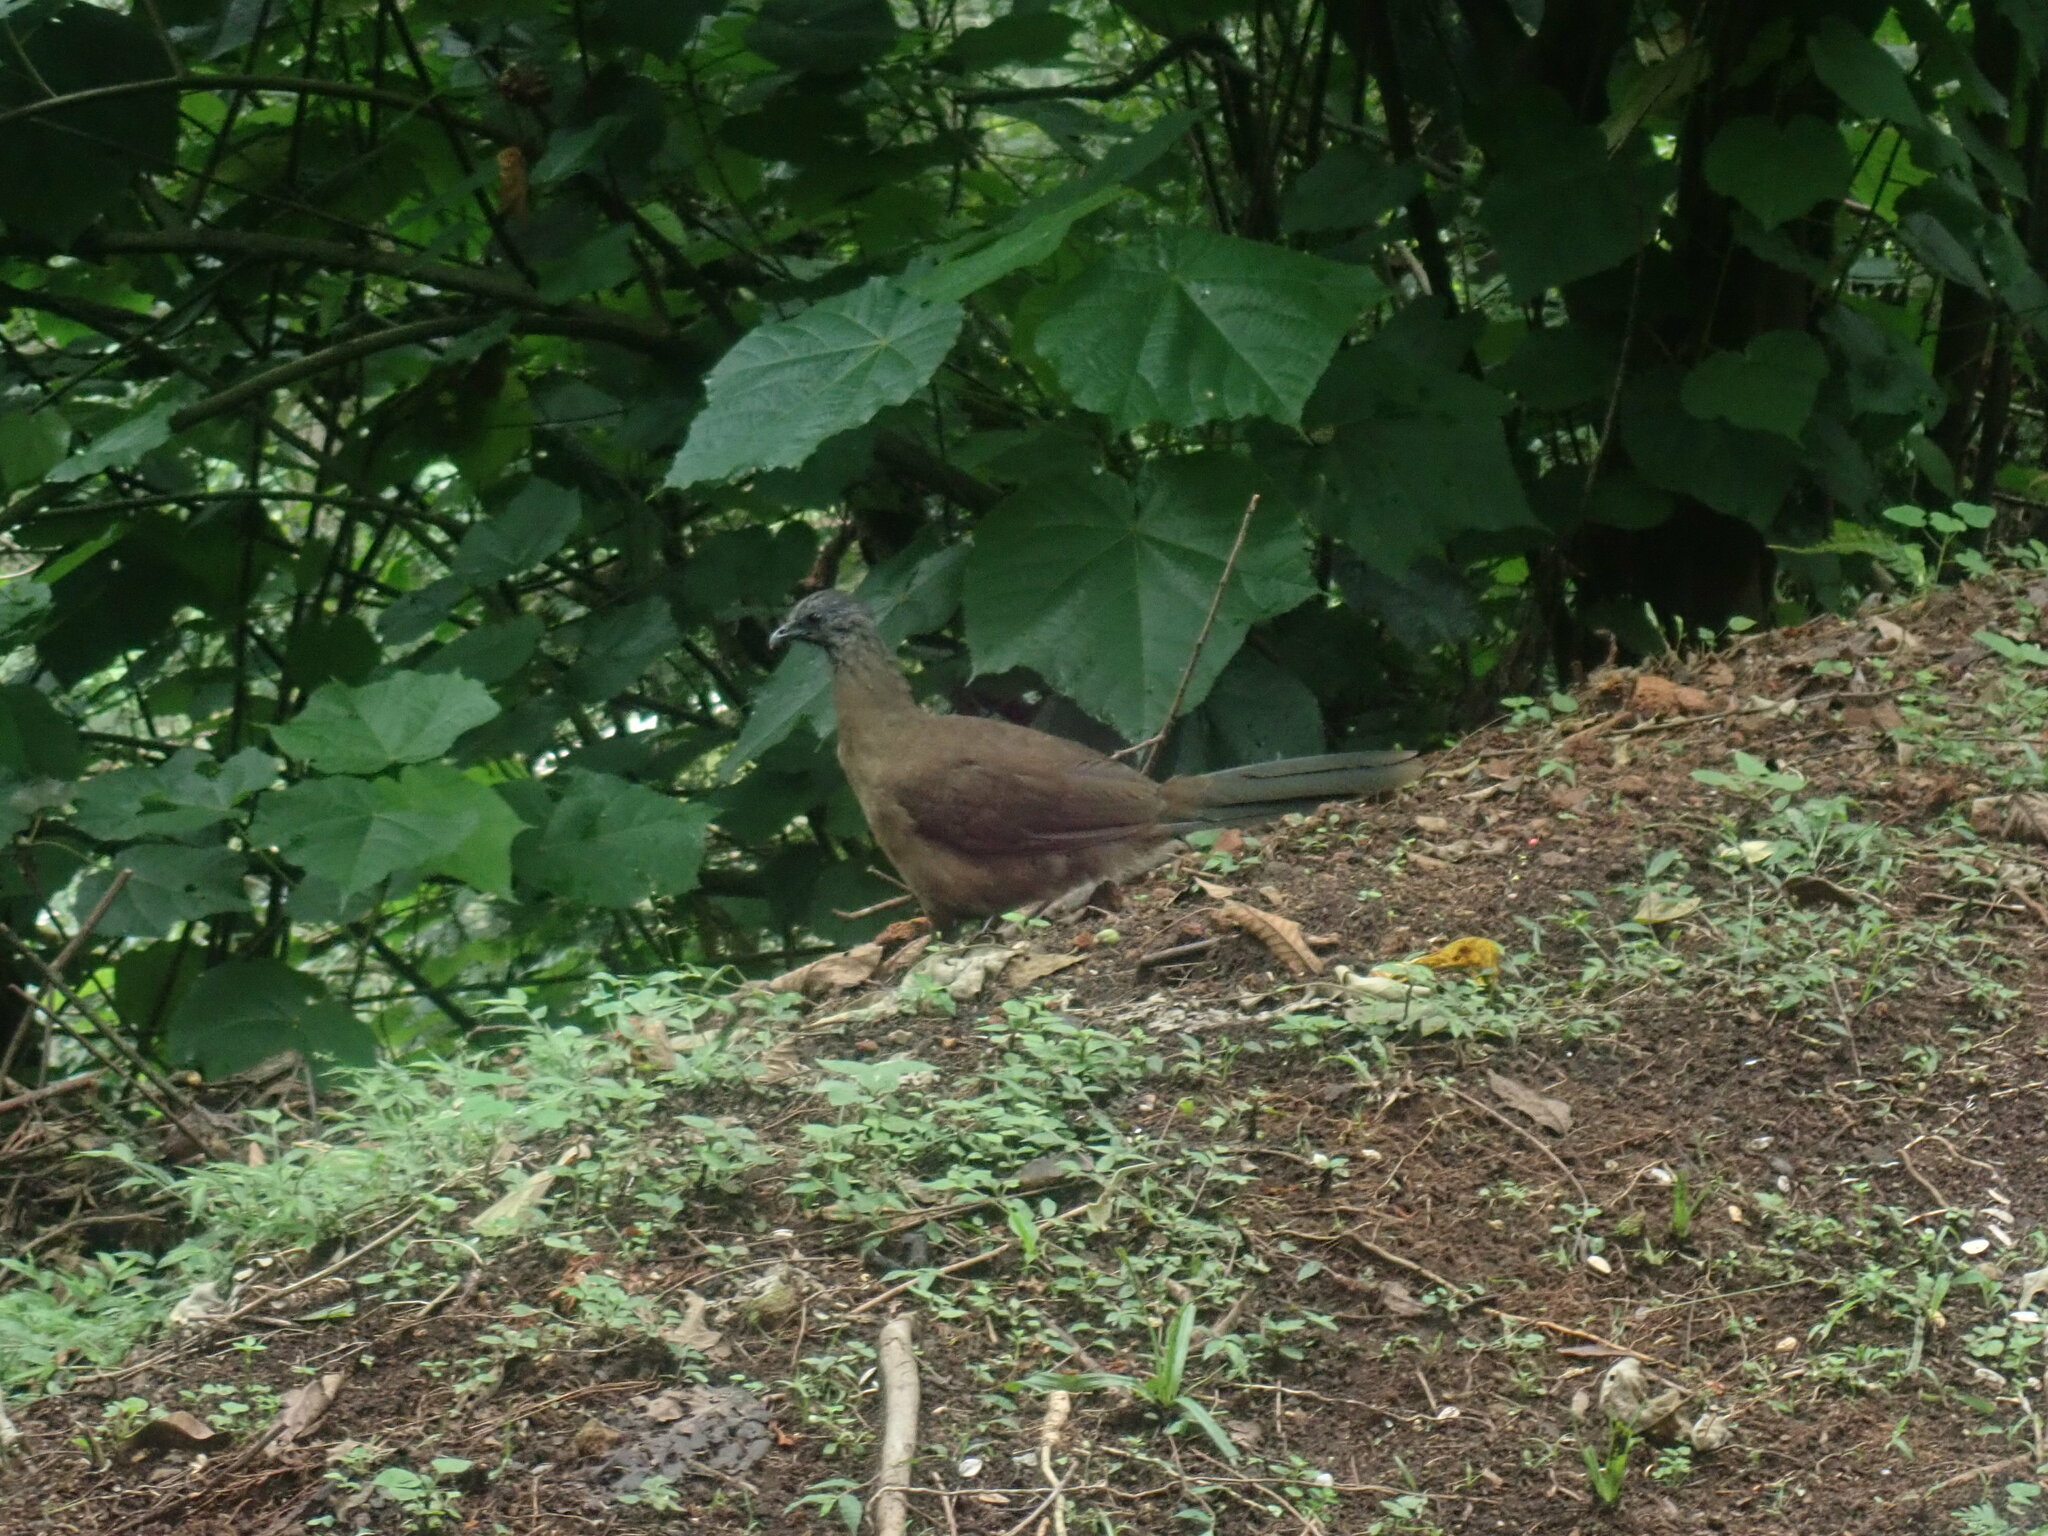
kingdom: Animalia
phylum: Chordata
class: Aves
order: Galliformes
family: Cracidae
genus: Ortalis
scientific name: Ortalis vetula
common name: Plain chachalaca
